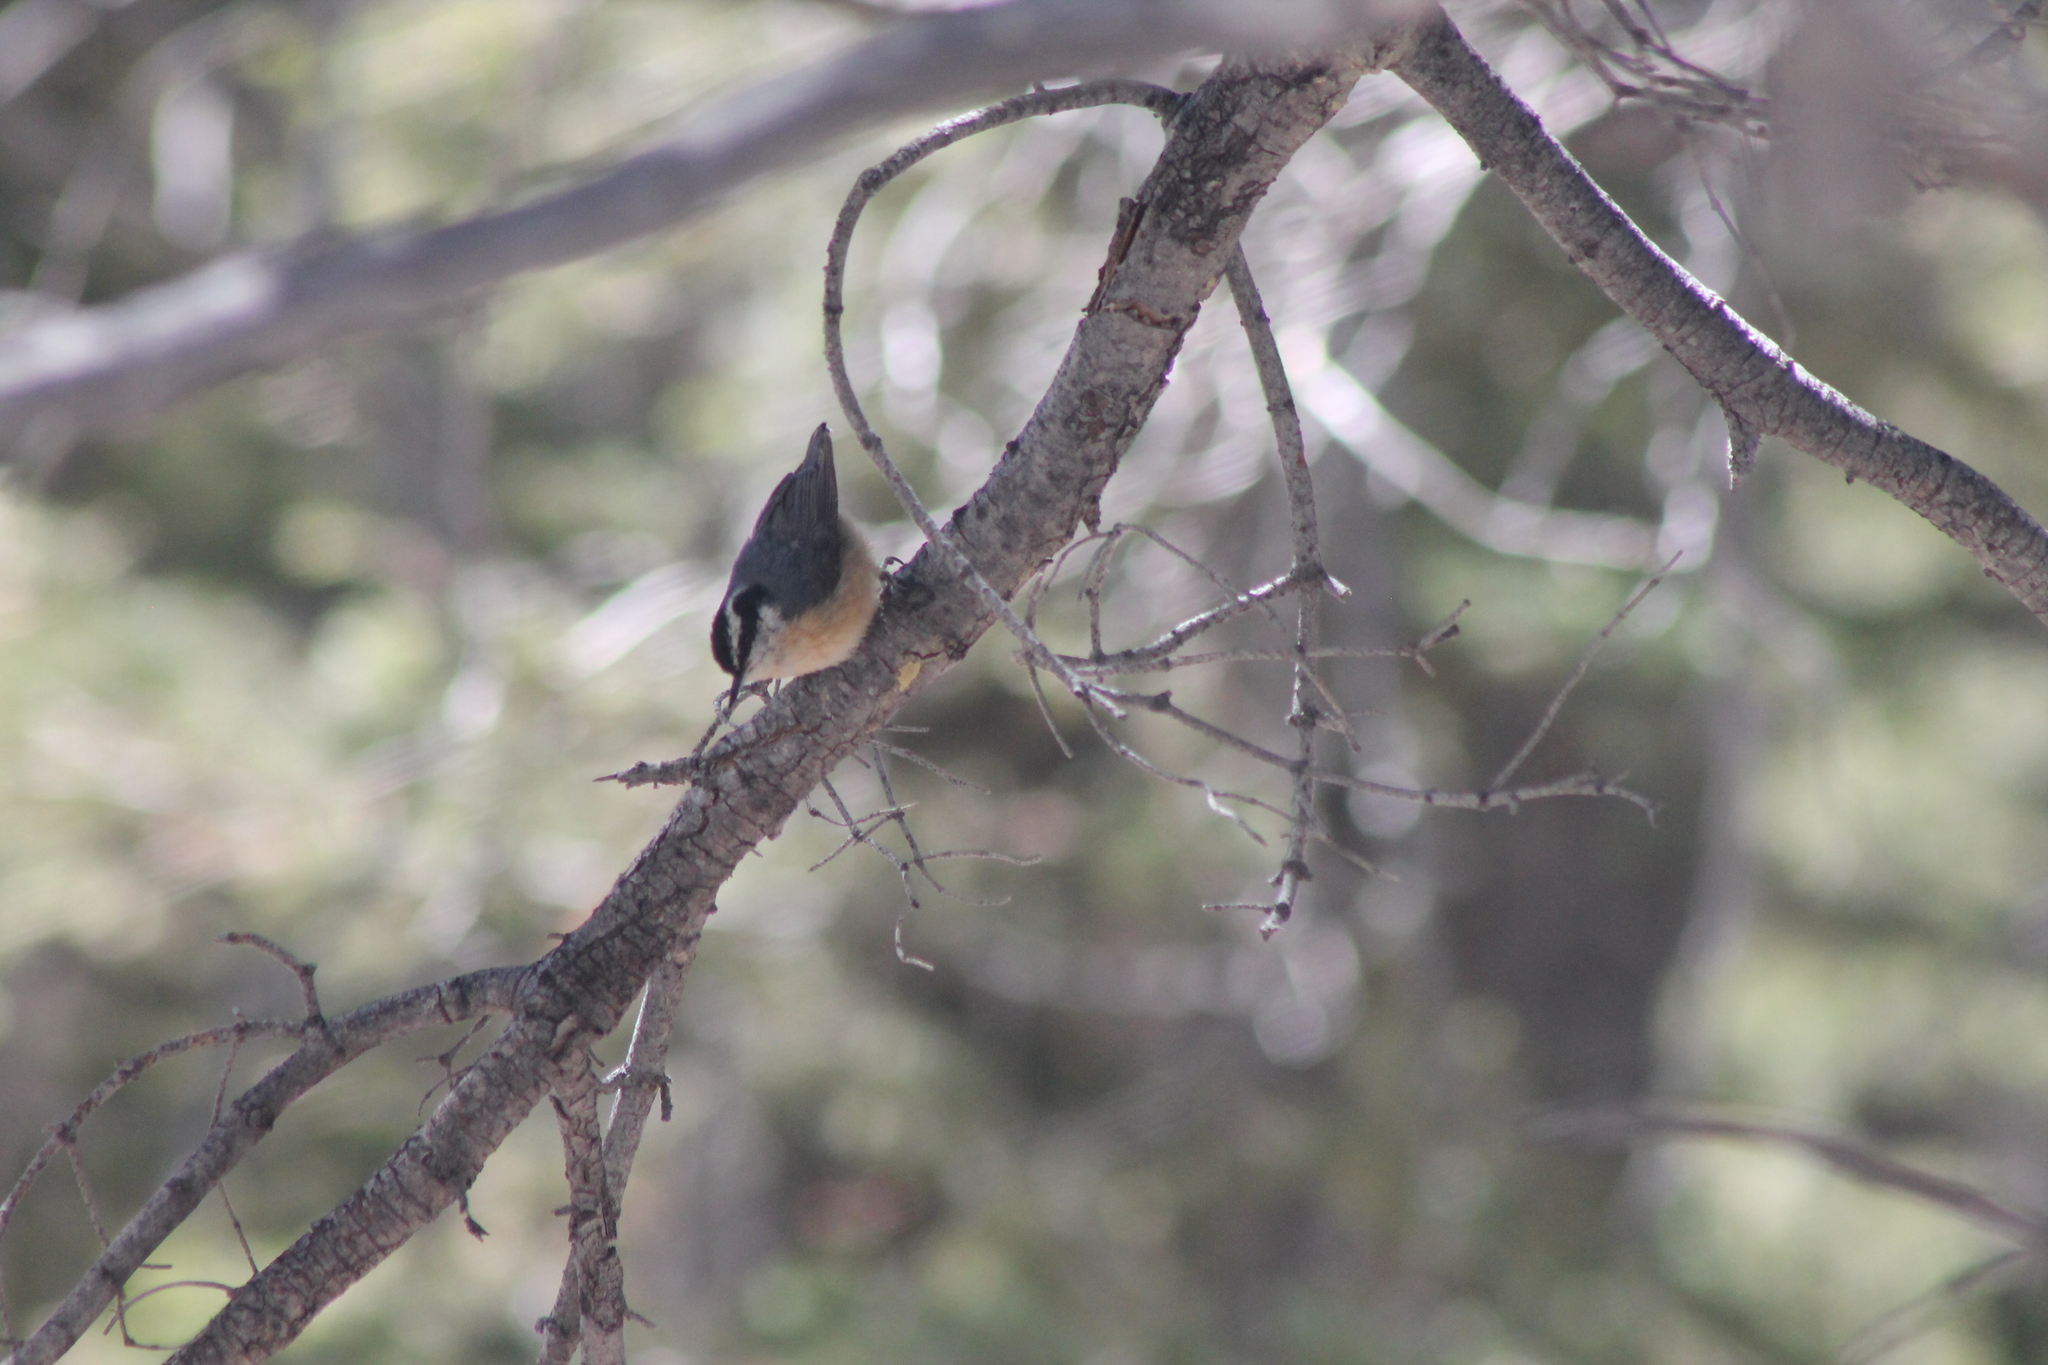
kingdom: Animalia
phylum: Chordata
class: Aves
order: Passeriformes
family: Sittidae
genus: Sitta
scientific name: Sitta canadensis
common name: Red-breasted nuthatch
